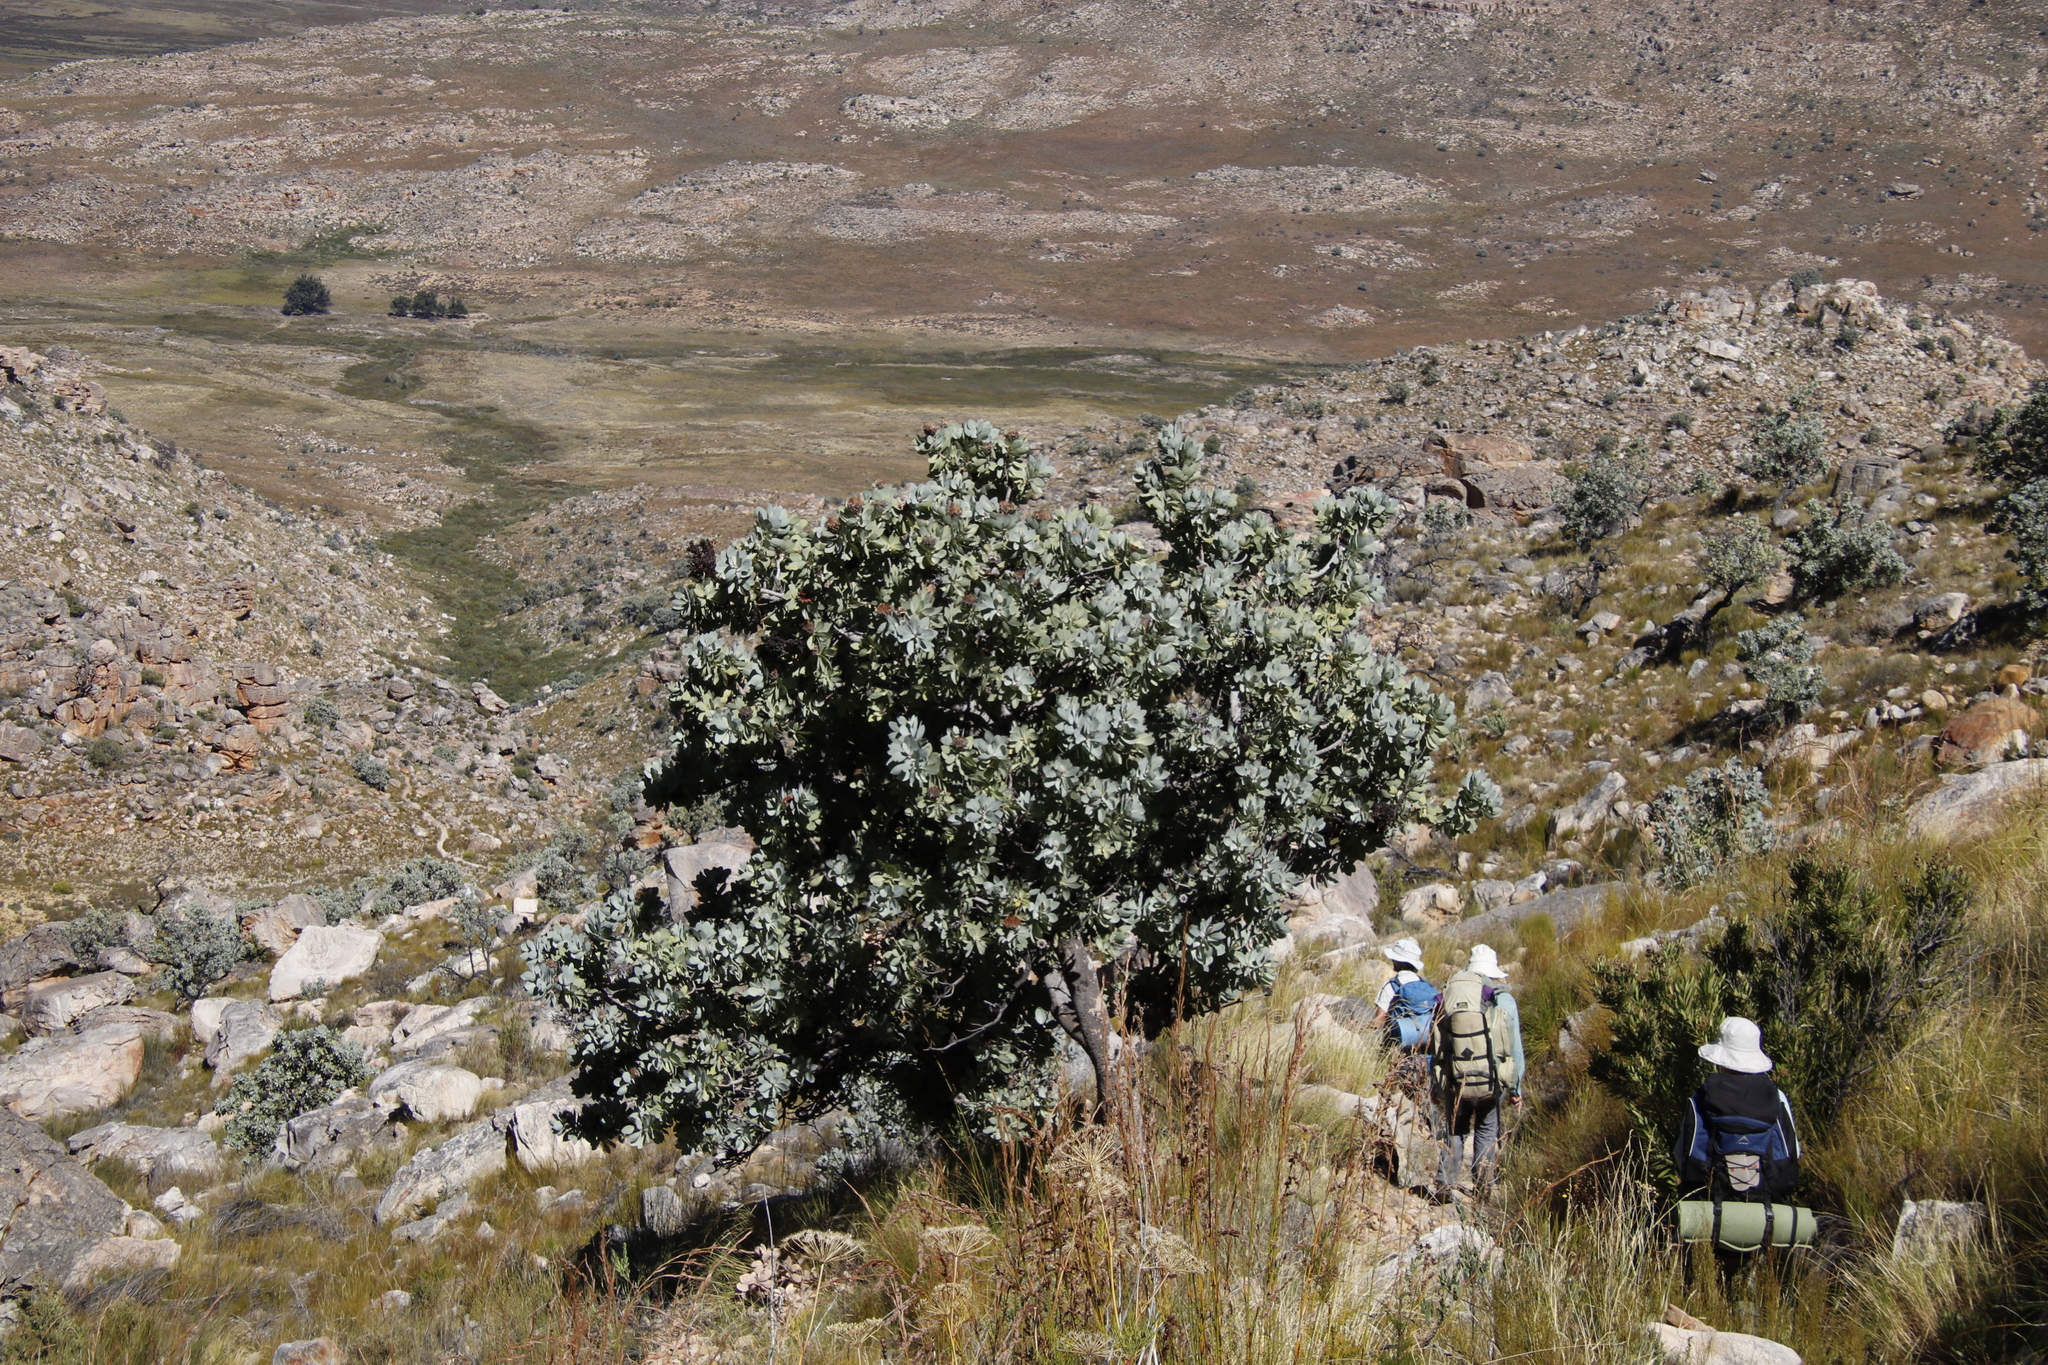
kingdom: Plantae
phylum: Tracheophyta
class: Magnoliopsida
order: Proteales
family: Proteaceae
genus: Protea
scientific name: Protea nitida
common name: Tree protea
